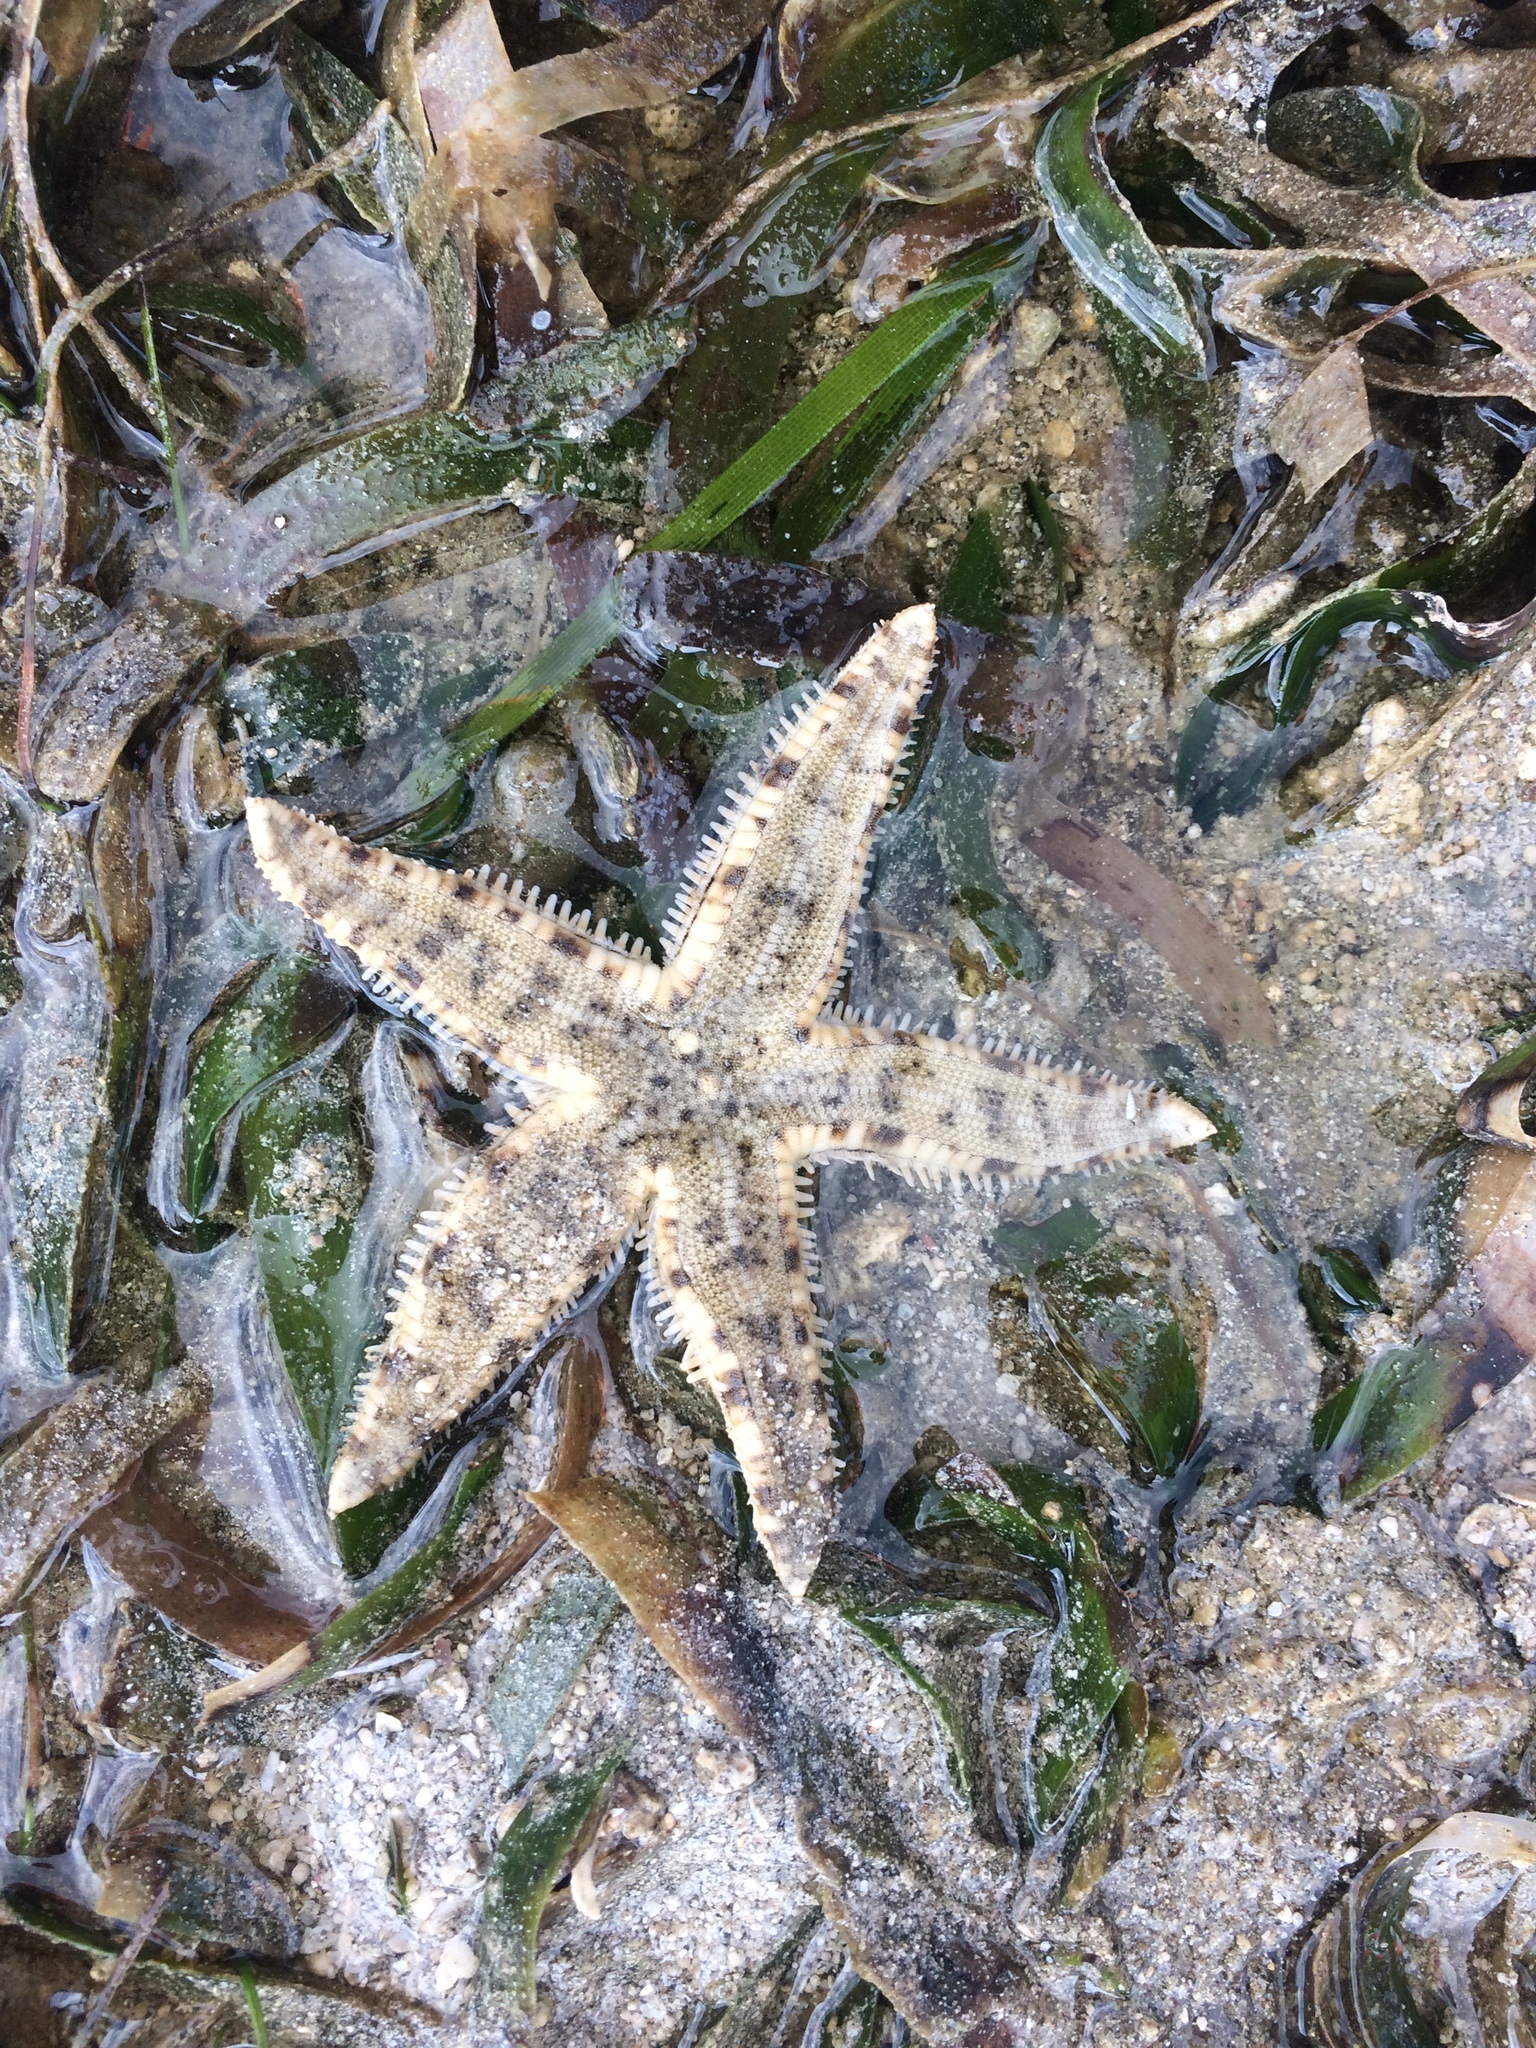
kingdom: Animalia
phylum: Echinodermata
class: Asteroidea
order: Valvatida
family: Archasteridae
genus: Archaster
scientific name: Archaster typicus
